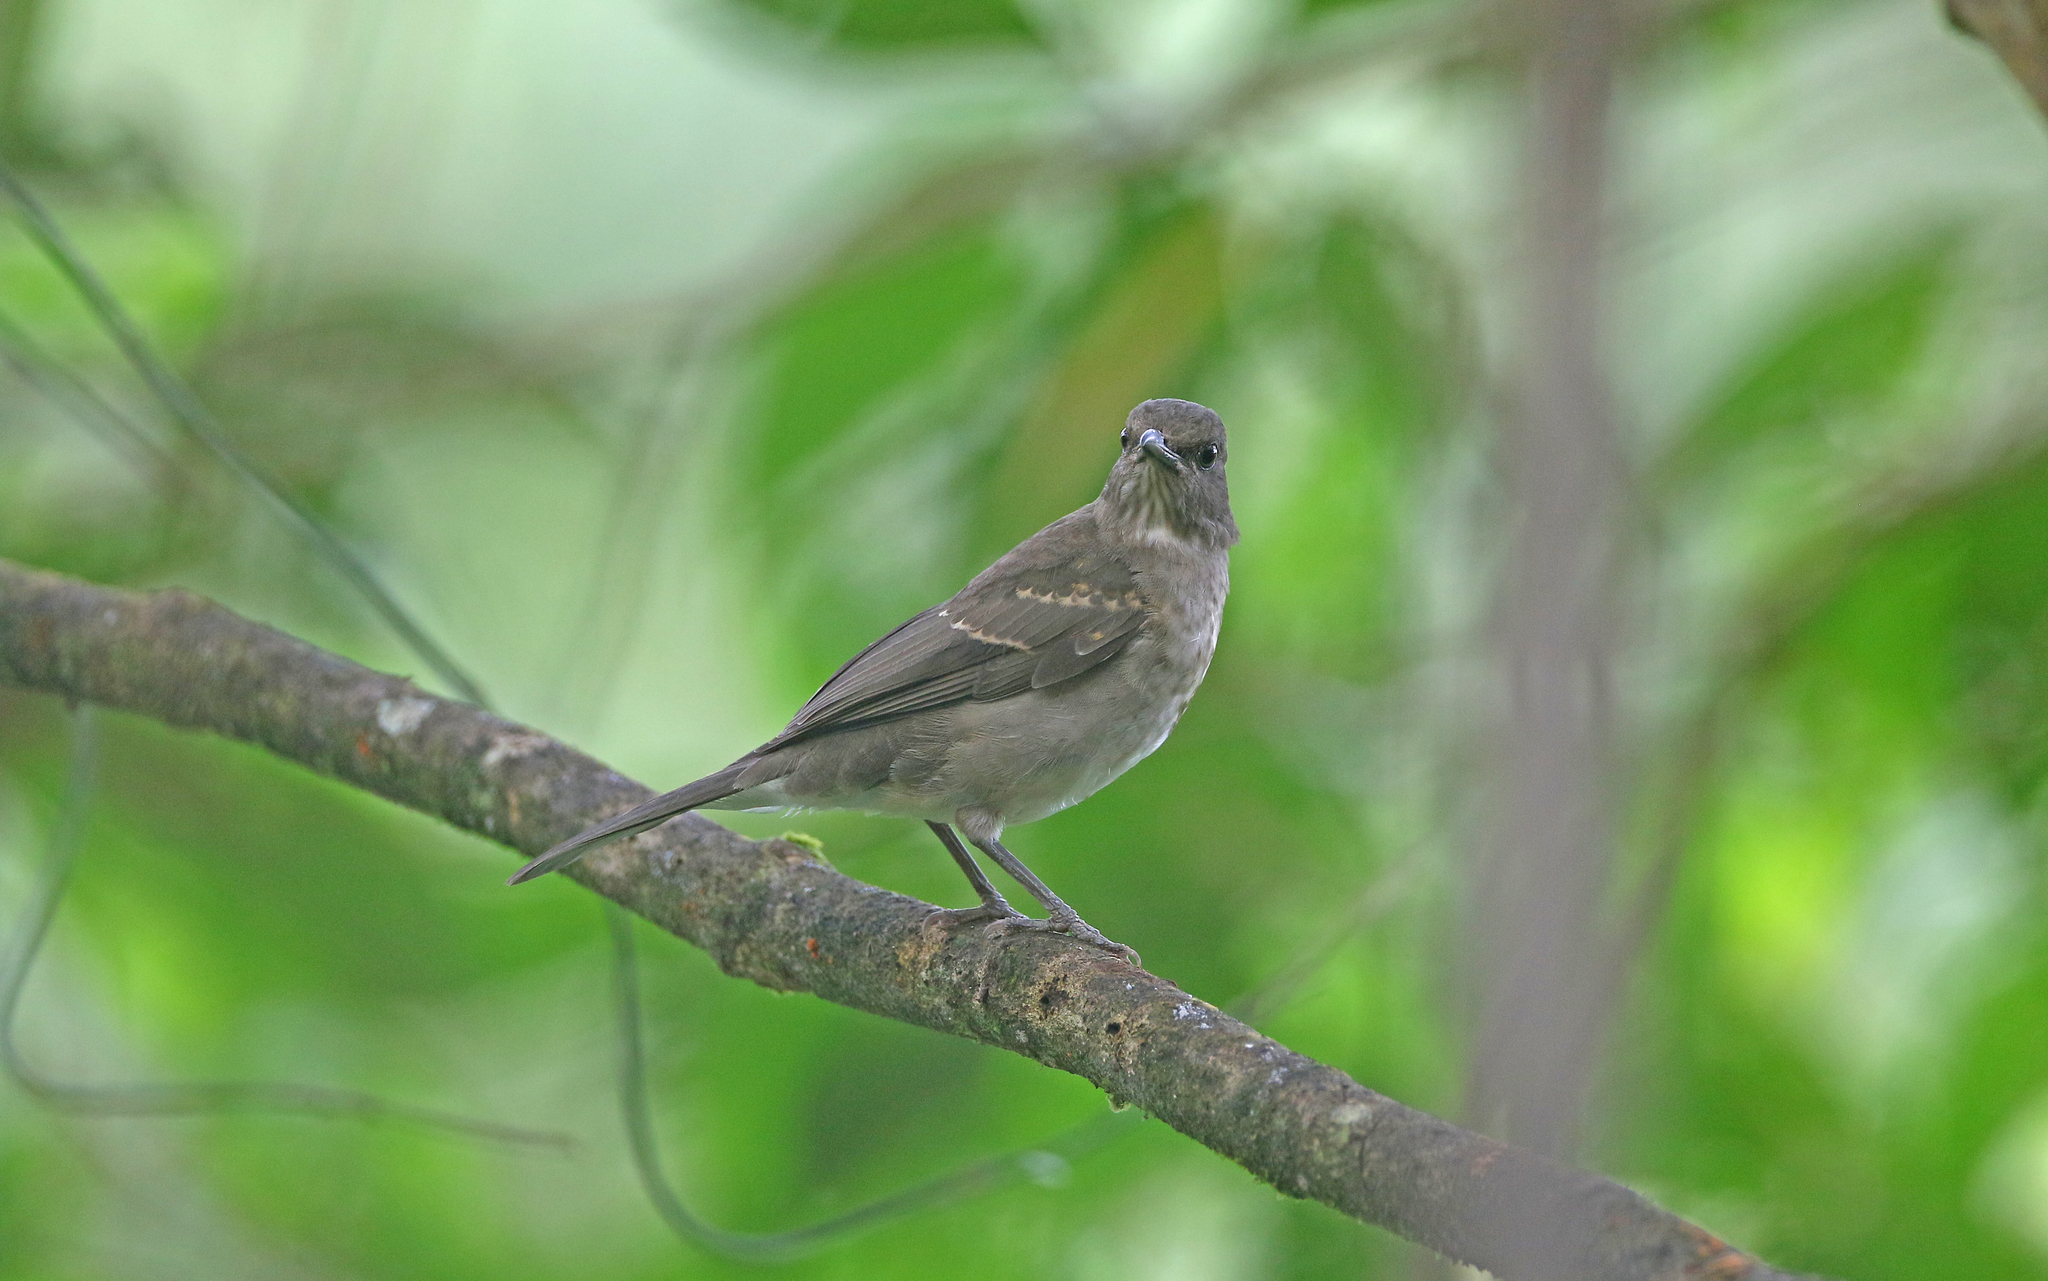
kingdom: Animalia
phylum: Chordata
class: Aves
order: Passeriformes
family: Turdidae
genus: Turdus
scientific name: Turdus ignobilis
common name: Black-billed thrush
